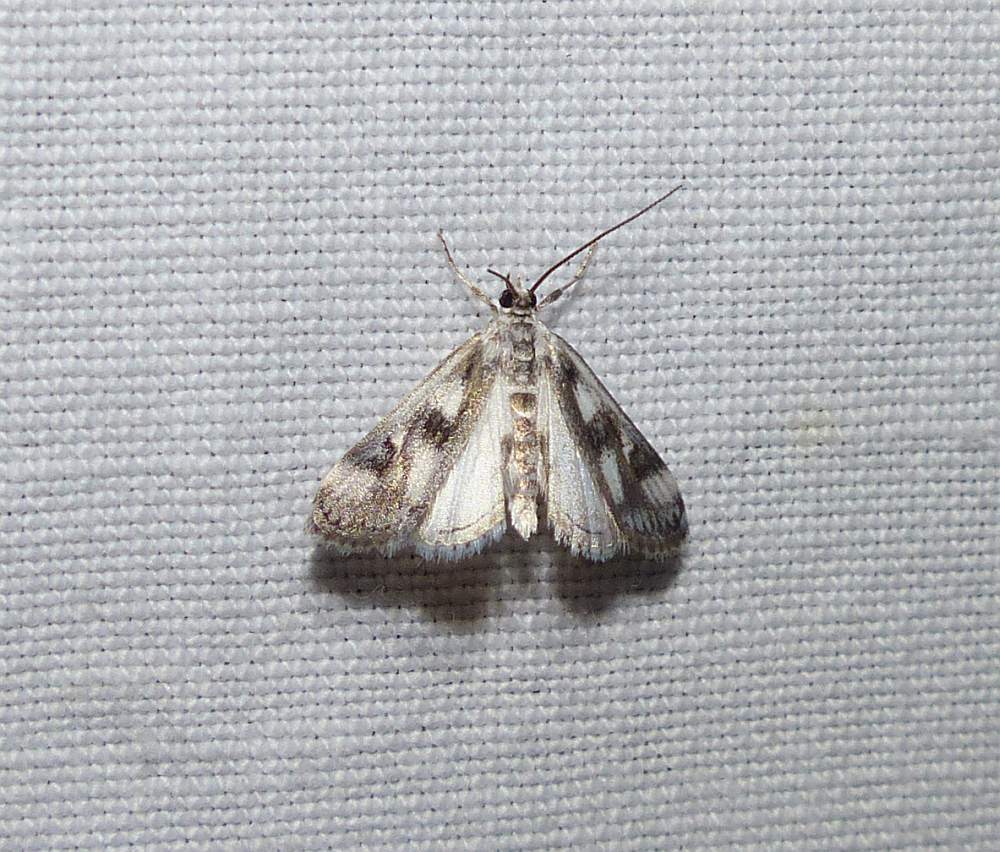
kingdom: Animalia
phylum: Arthropoda
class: Insecta
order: Lepidoptera
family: Crambidae
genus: Parapoynx
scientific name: Parapoynx maculalis
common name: Polymorphic pondweed moth
